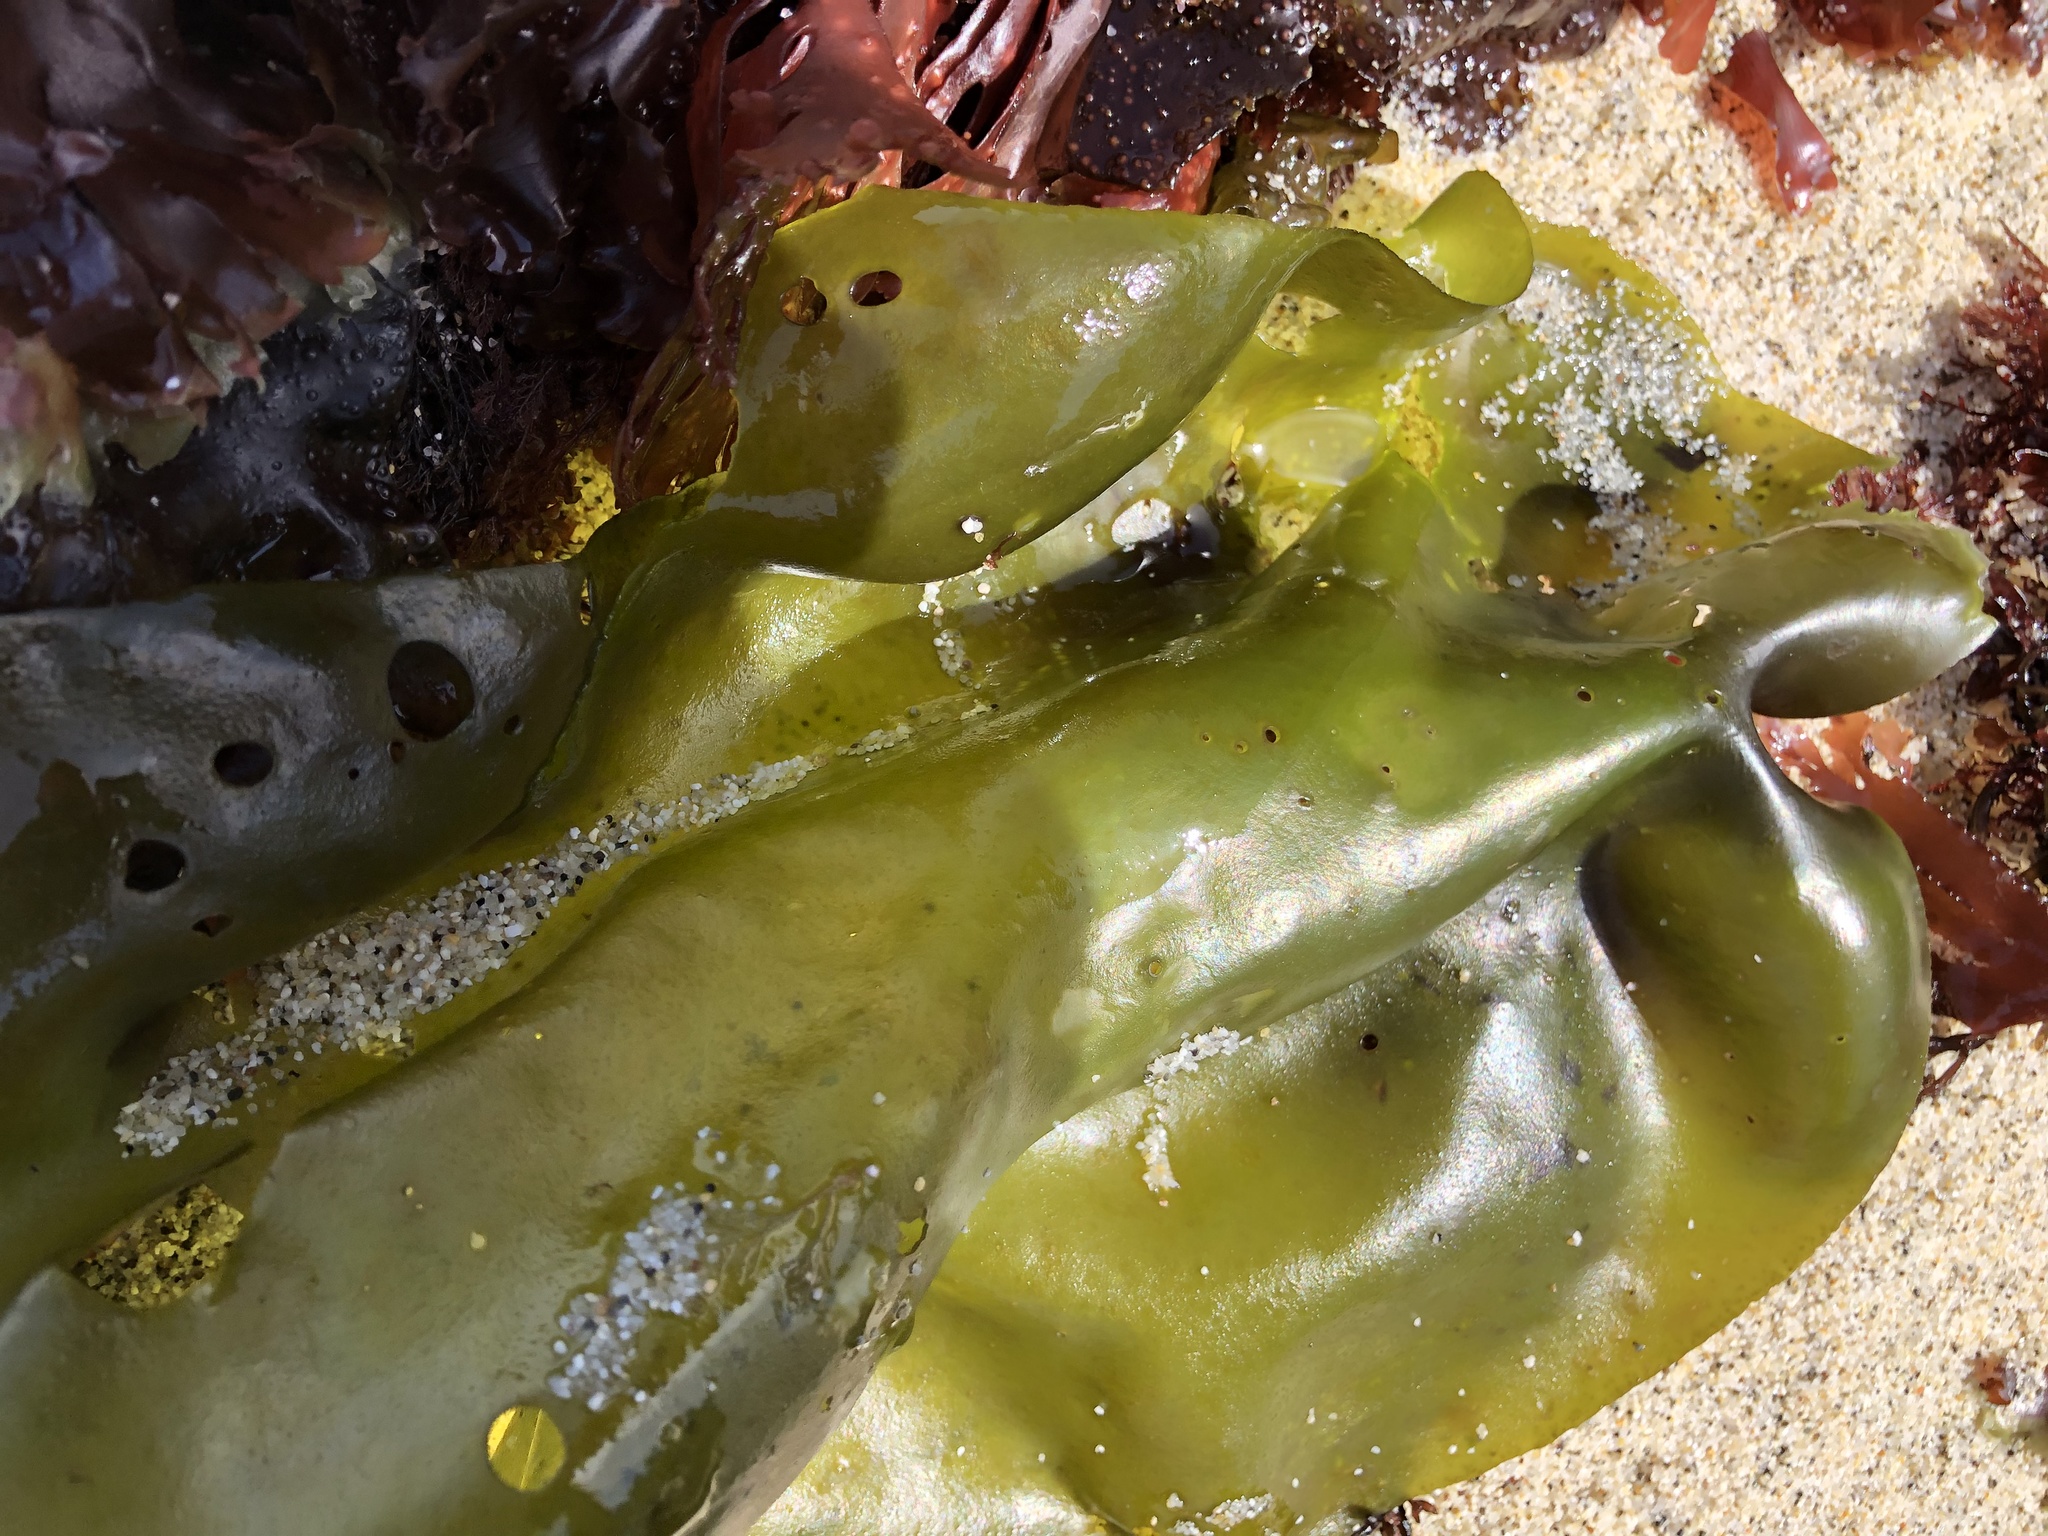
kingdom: Plantae
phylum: Rhodophyta
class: Florideophyceae
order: Gigartinales
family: Gigartinaceae
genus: Mazzaella
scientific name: Mazzaella flaccida
